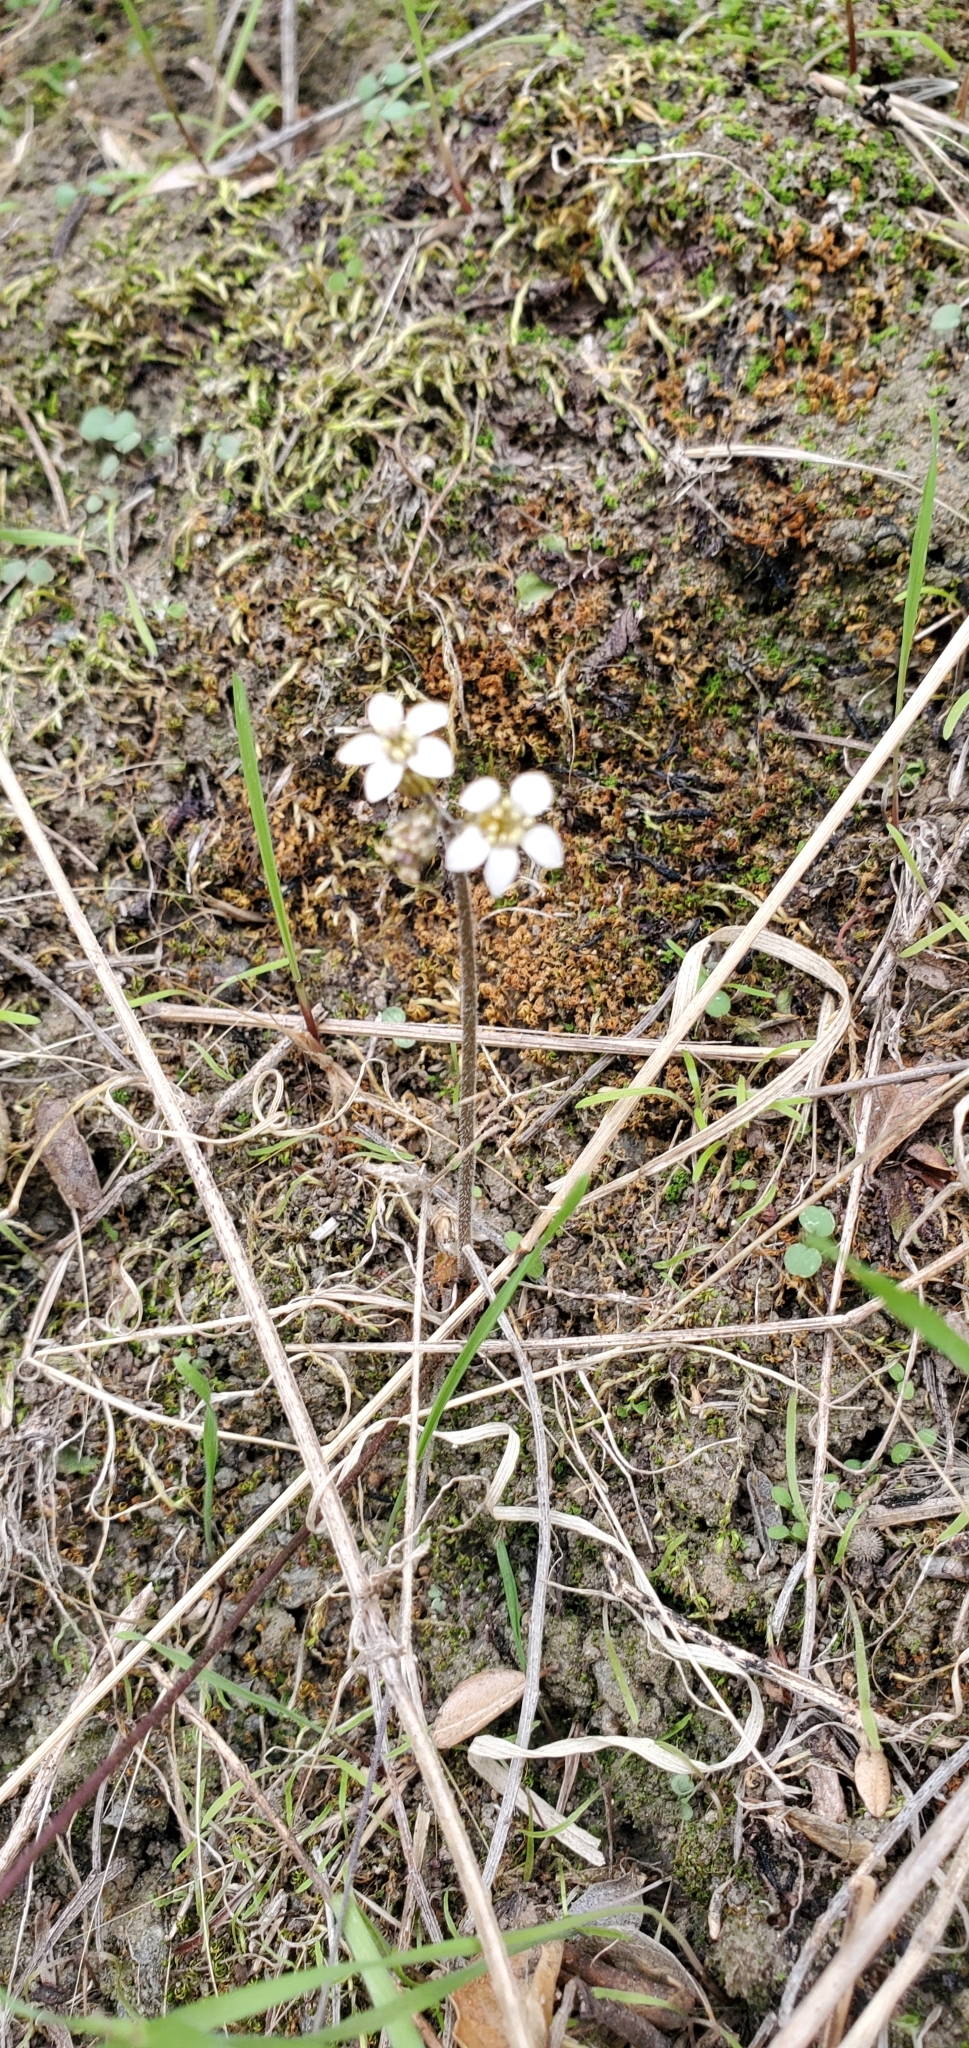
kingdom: Plantae
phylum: Tracheophyta
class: Magnoliopsida
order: Saxifragales
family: Saxifragaceae
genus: Jepsonia
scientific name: Jepsonia parryi
